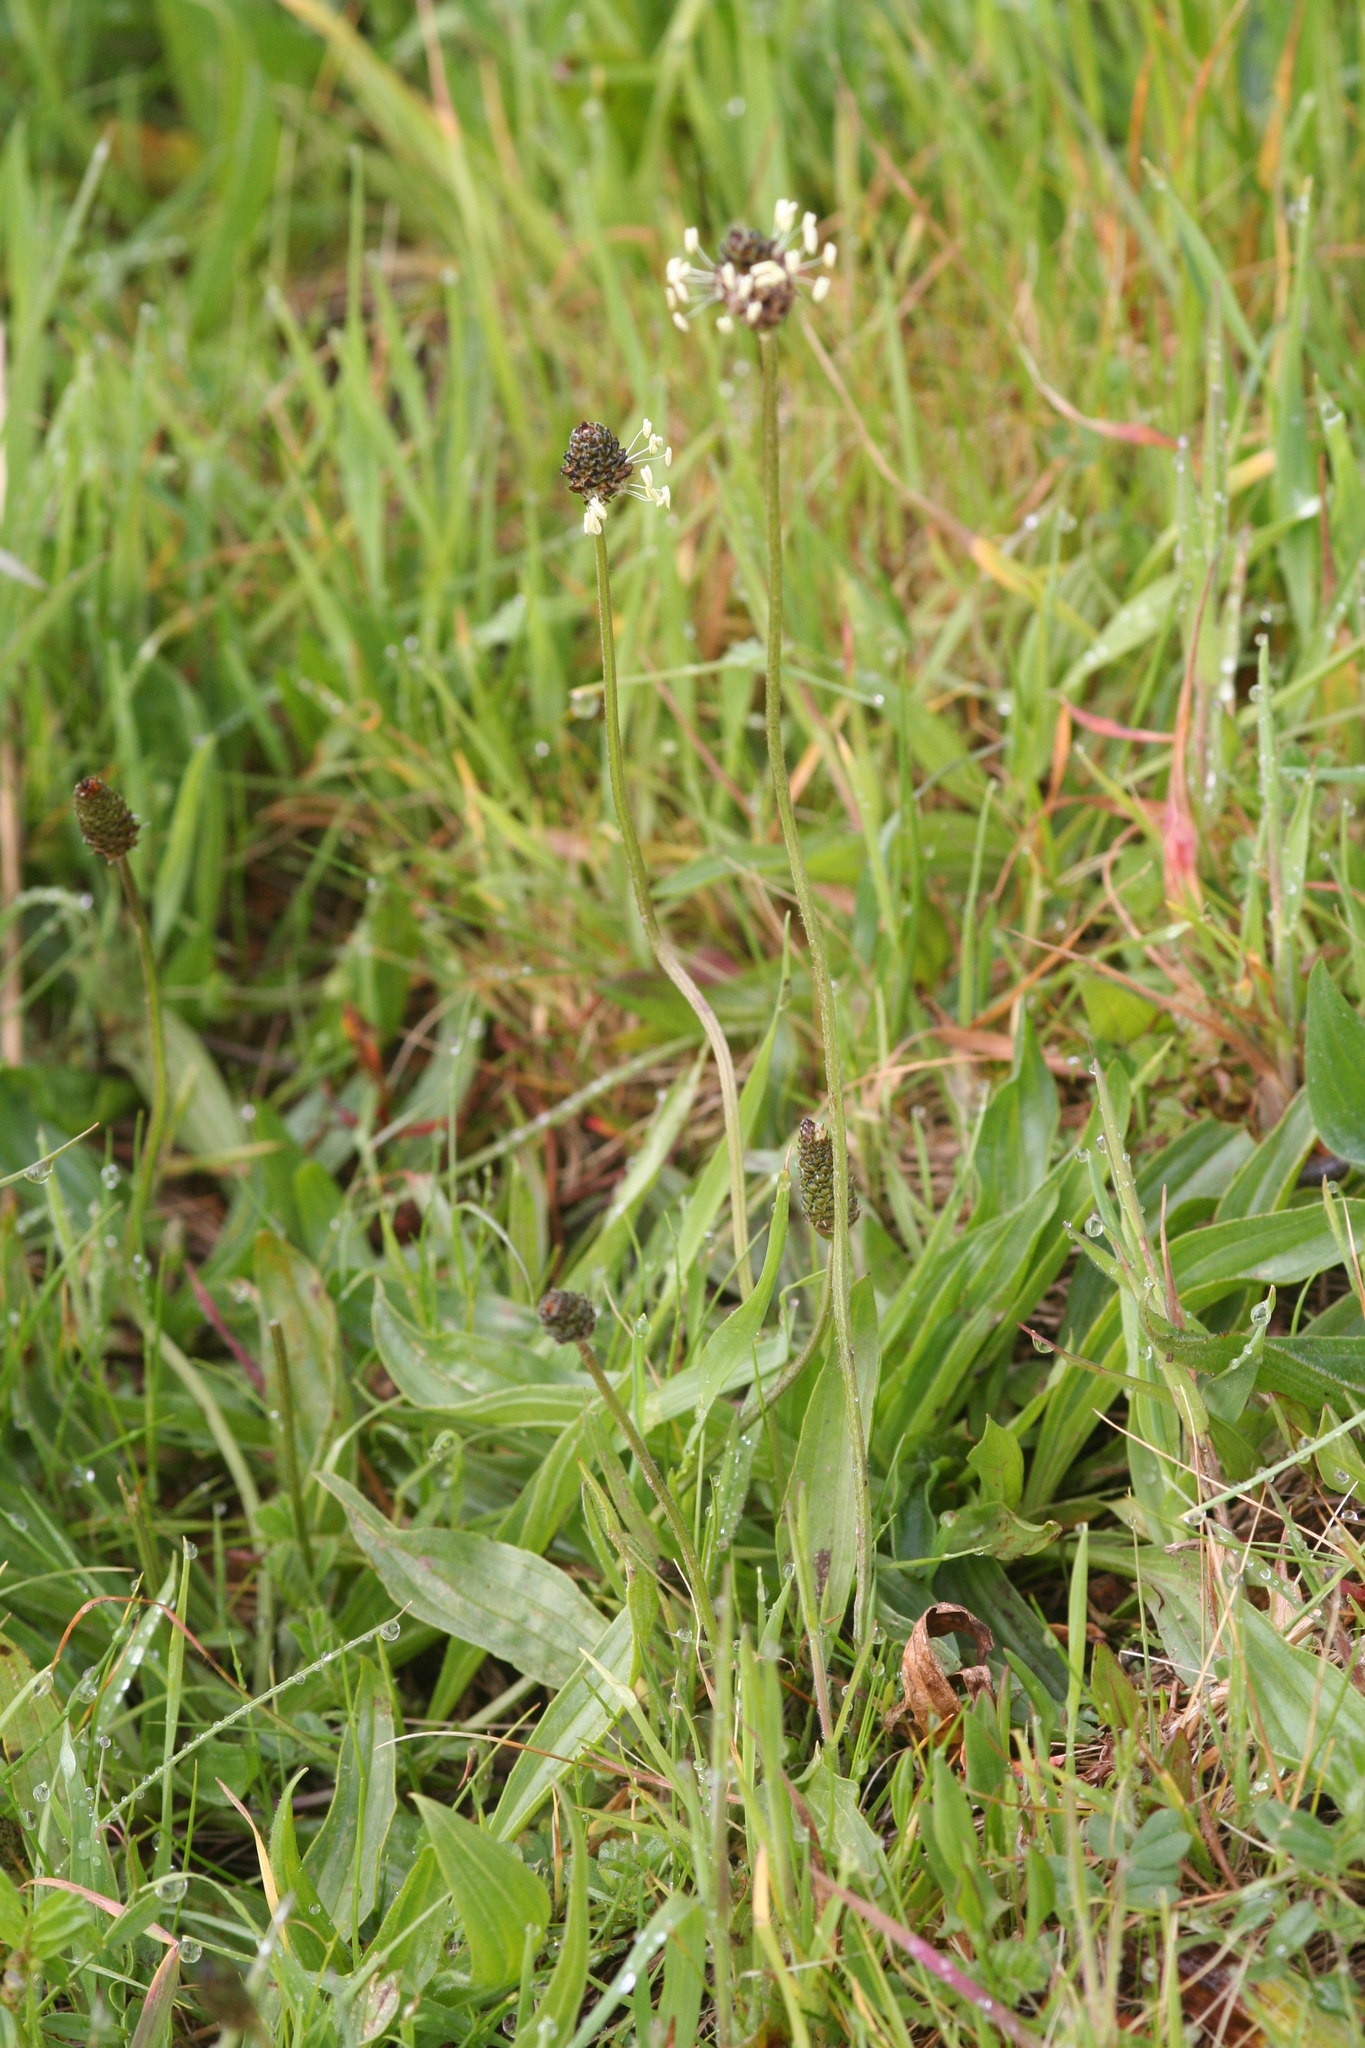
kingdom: Plantae
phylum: Tracheophyta
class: Magnoliopsida
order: Lamiales
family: Plantaginaceae
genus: Plantago
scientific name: Plantago lanceolata
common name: Ribwort plantain
